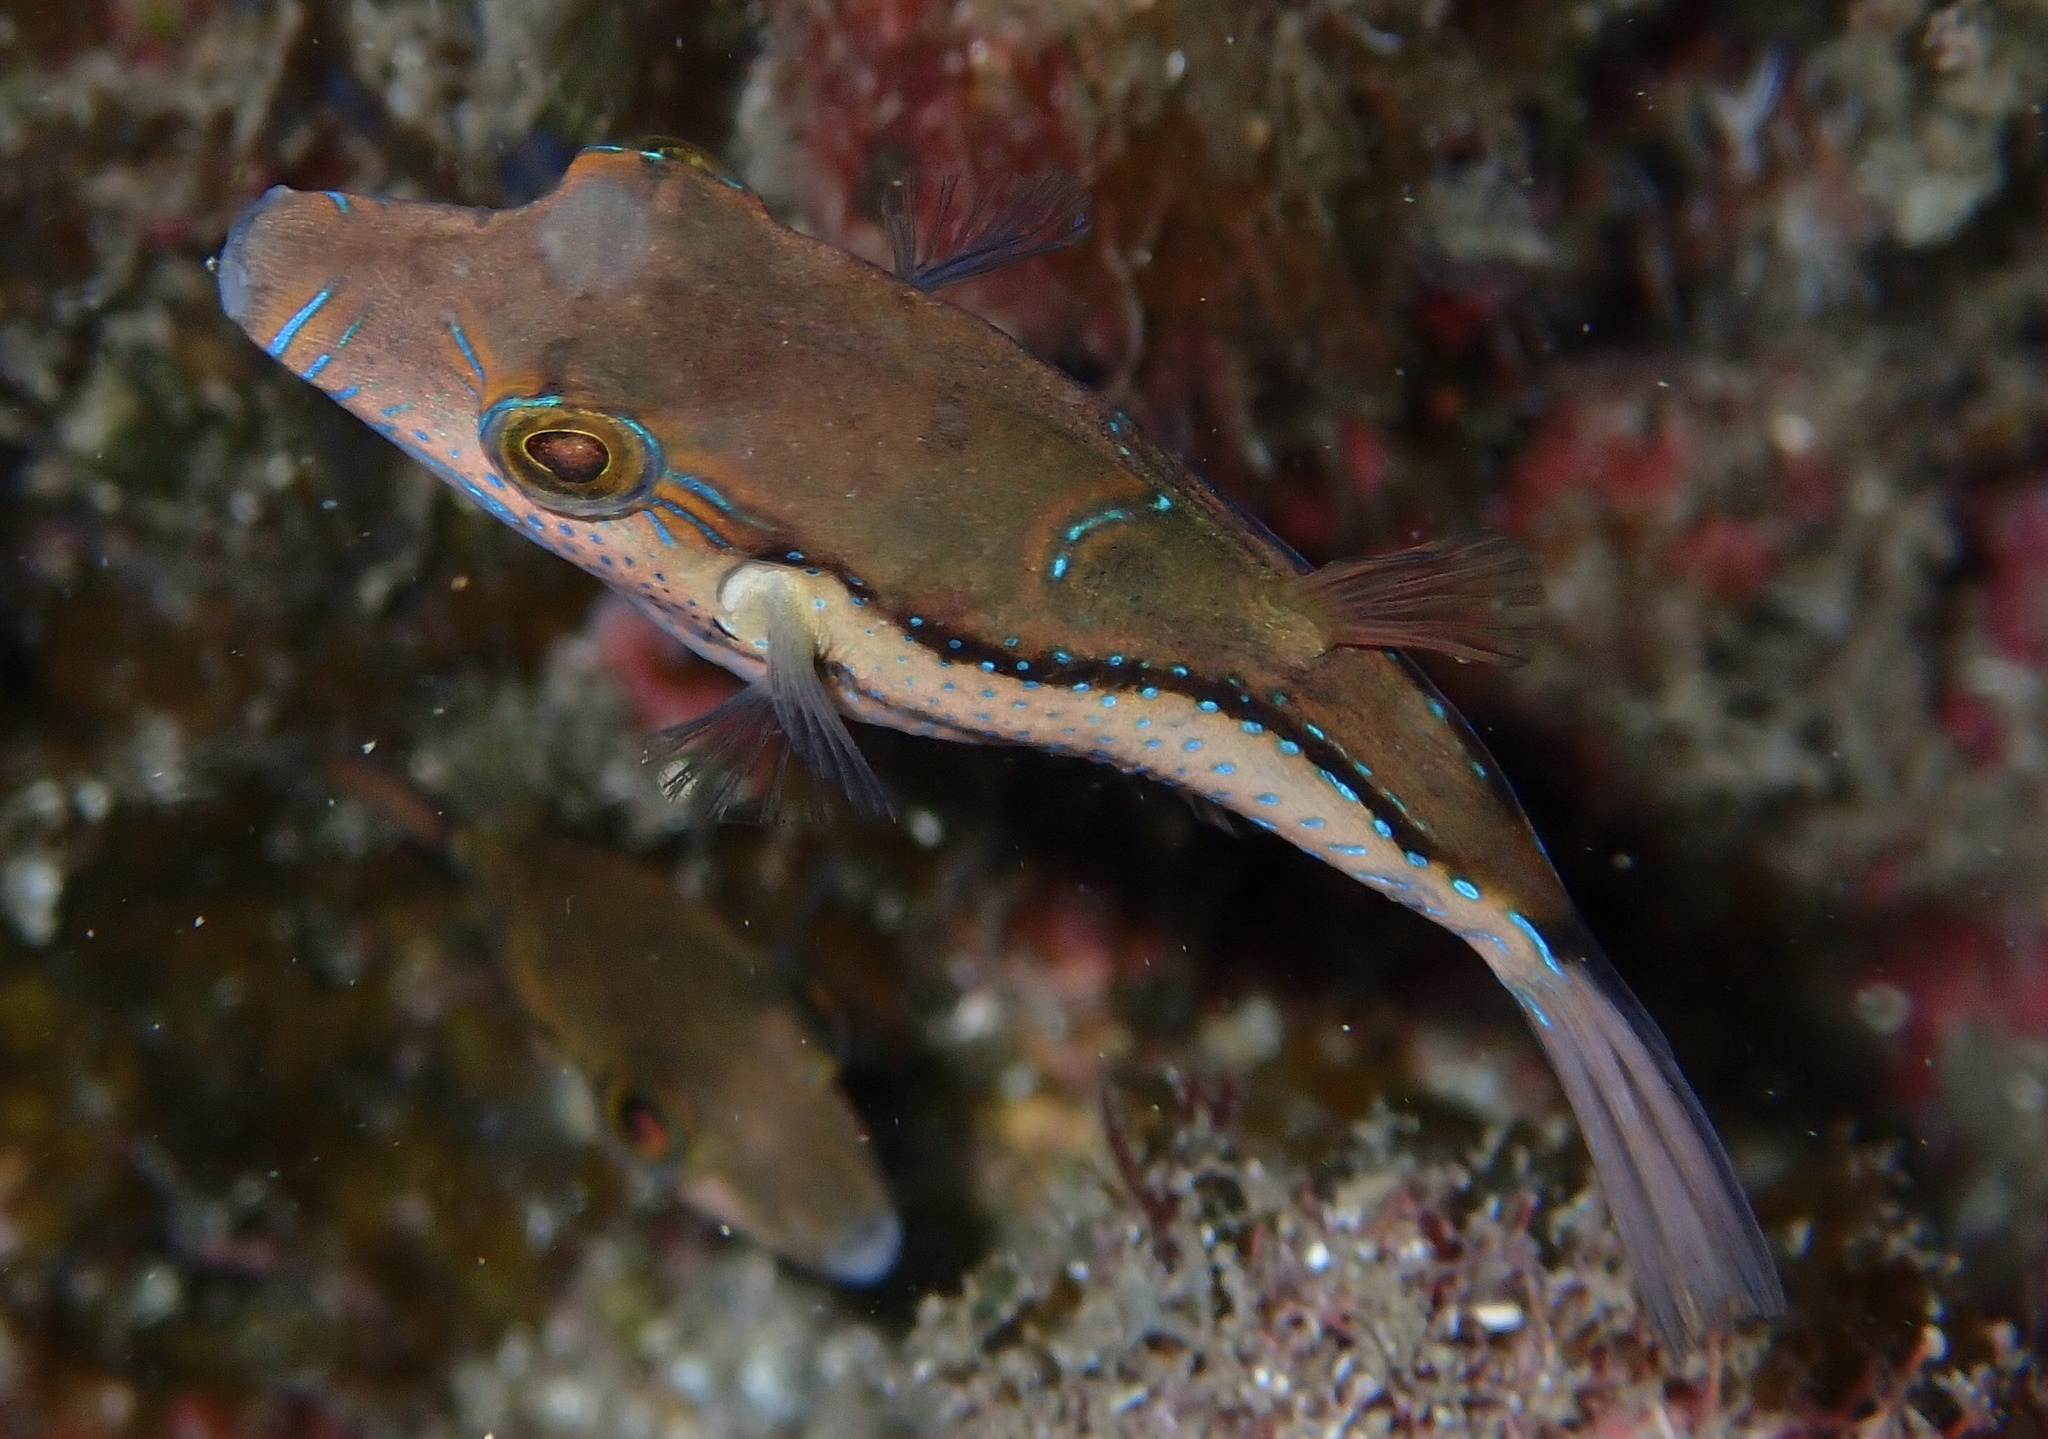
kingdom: Animalia
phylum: Chordata
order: Tetraodontiformes
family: Tetraodontidae
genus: Canthigaster
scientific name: Canthigaster capistrata
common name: Macaronesian sharpnose-puffer
